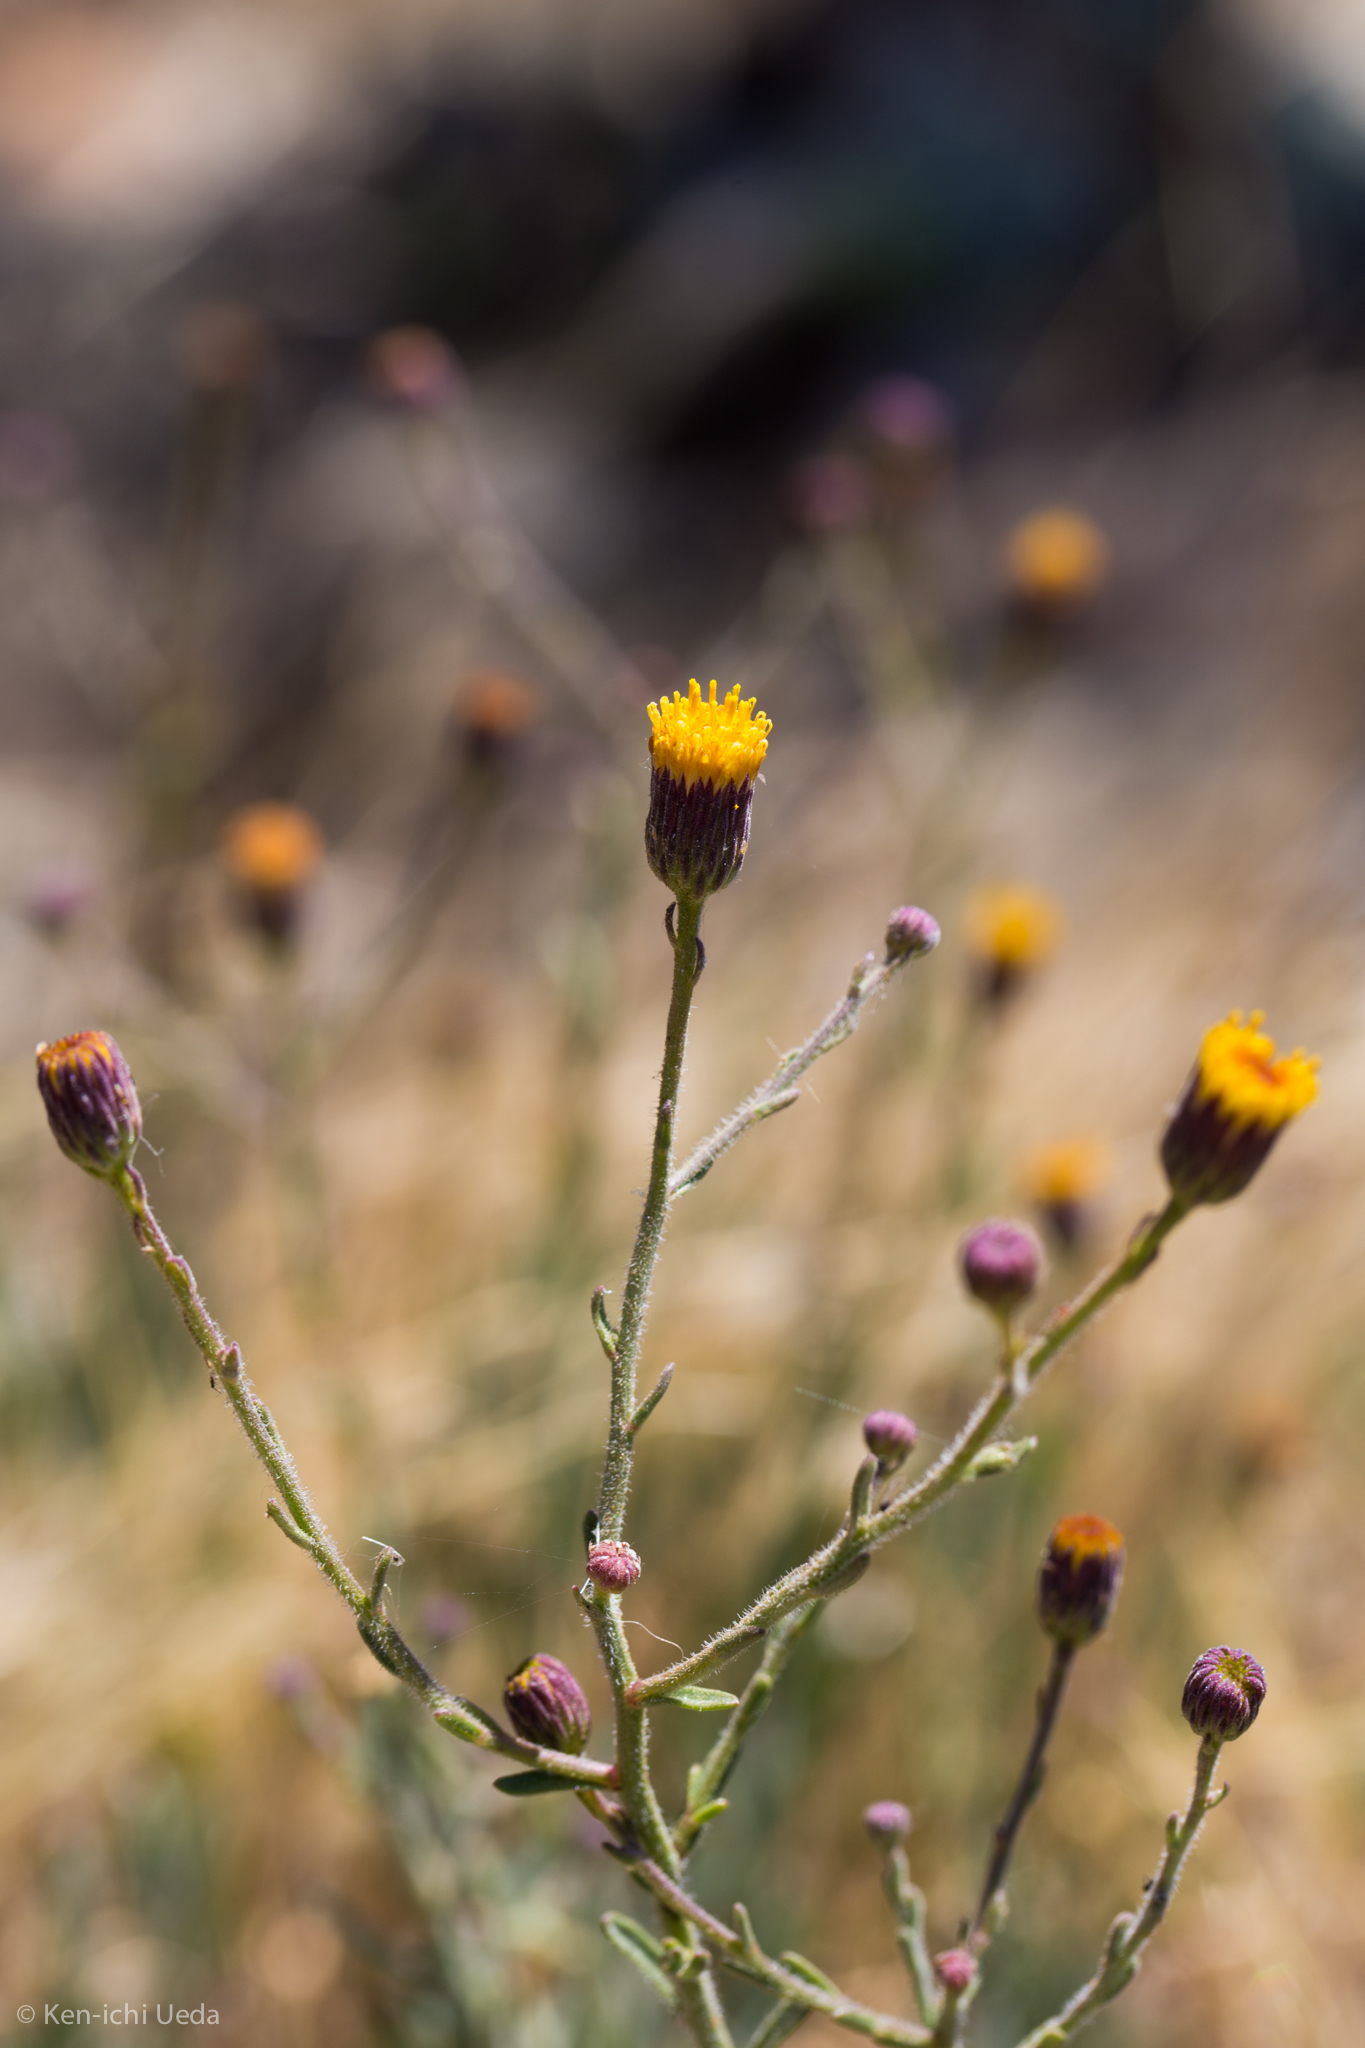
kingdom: Plantae
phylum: Tracheophyta
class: Magnoliopsida
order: Asterales
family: Asteraceae
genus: Erigeron
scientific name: Erigeron petrophilus
